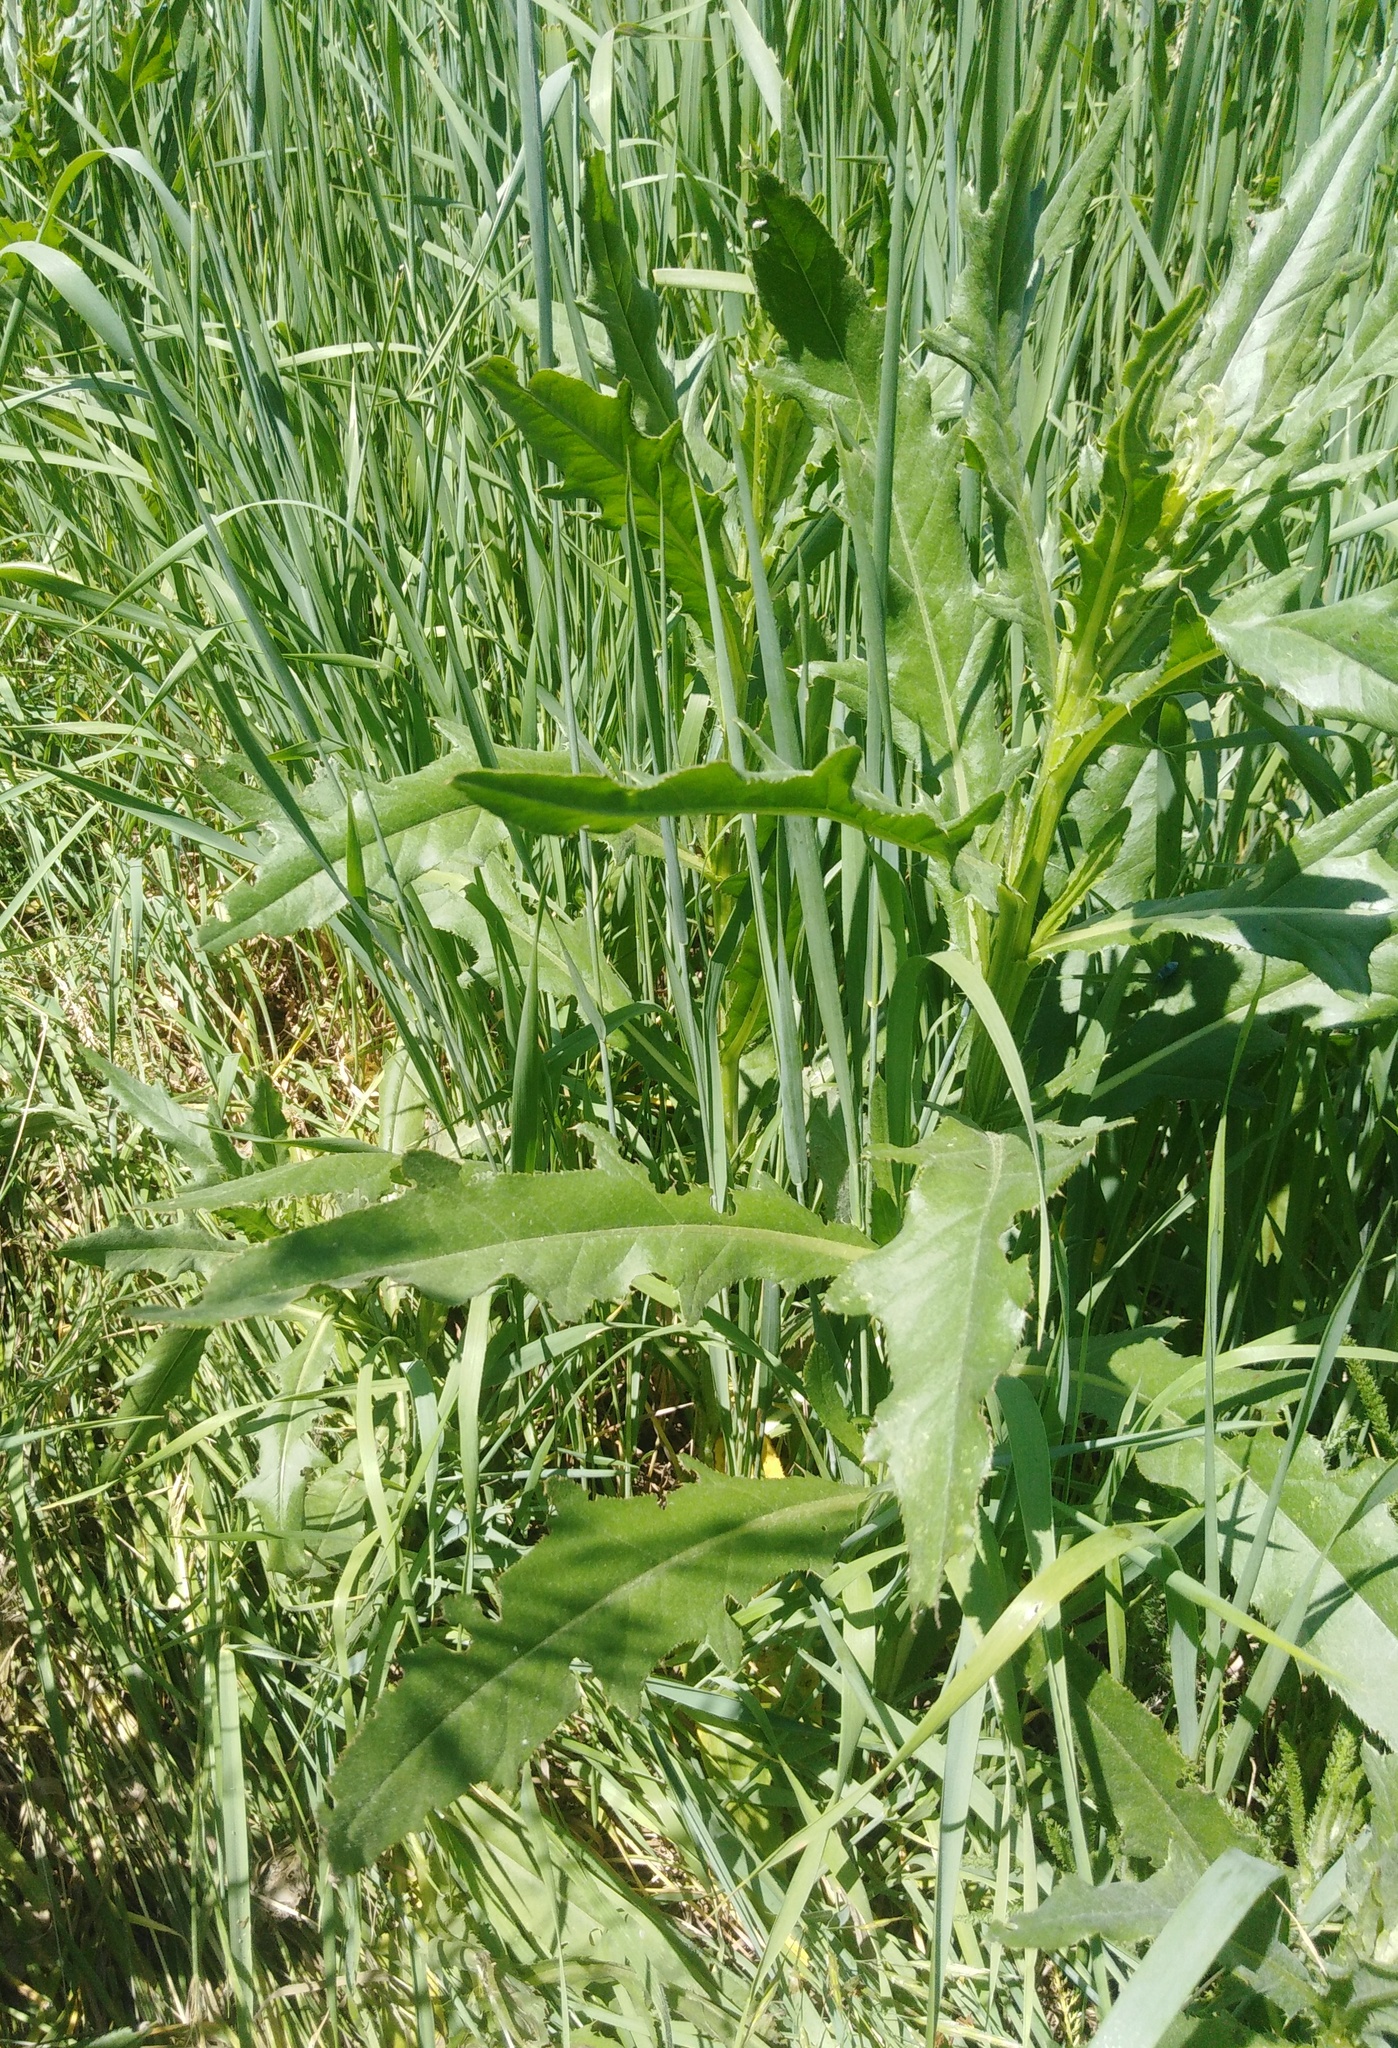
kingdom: Plantae
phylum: Tracheophyta
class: Magnoliopsida
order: Asterales
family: Asteraceae
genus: Cirsium
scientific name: Cirsium arvense
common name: Creeping thistle
